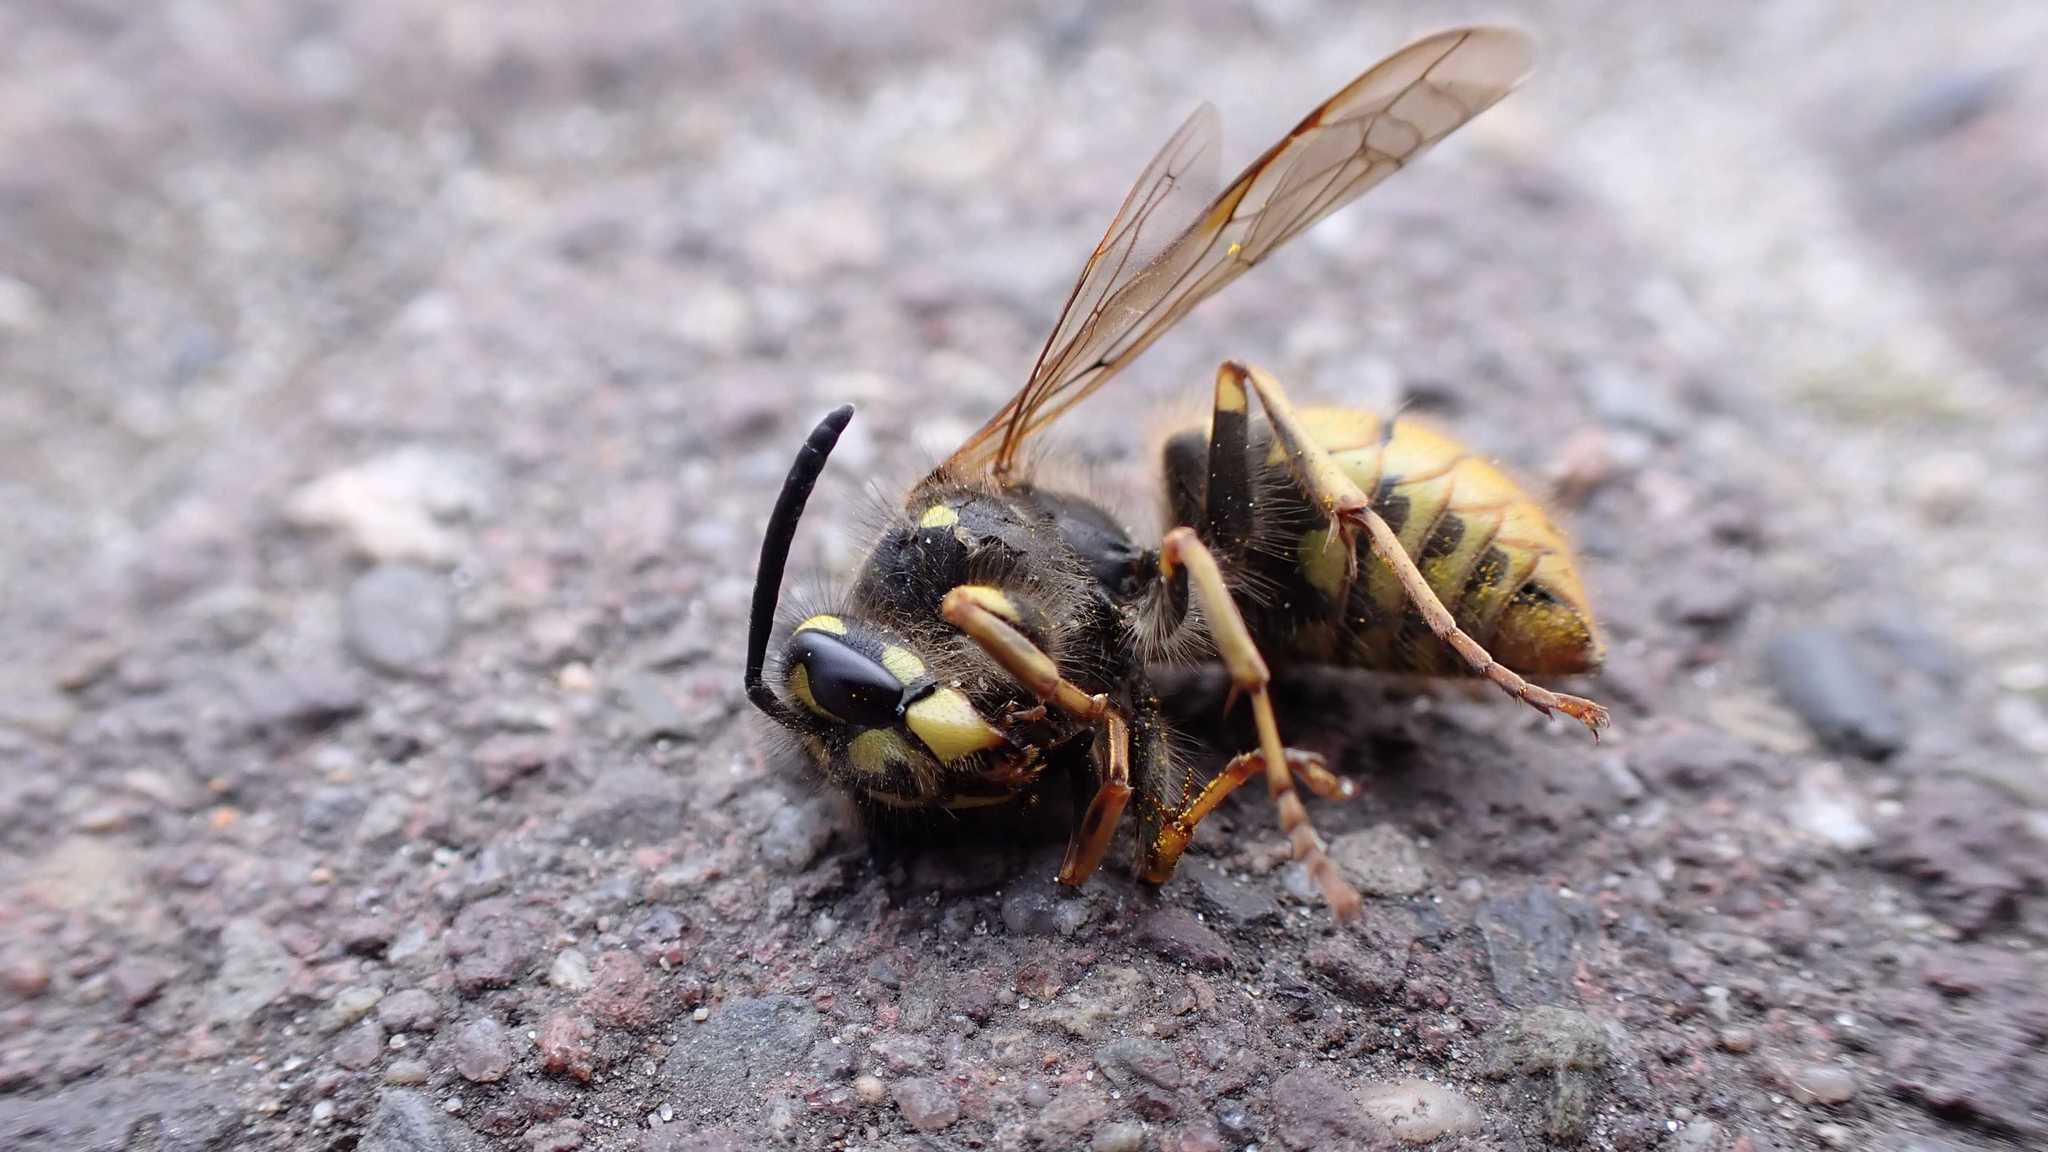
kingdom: Animalia
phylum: Arthropoda
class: Insecta
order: Hymenoptera
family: Vespidae
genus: Vespula
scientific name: Vespula vulgaris
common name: Common wasp
